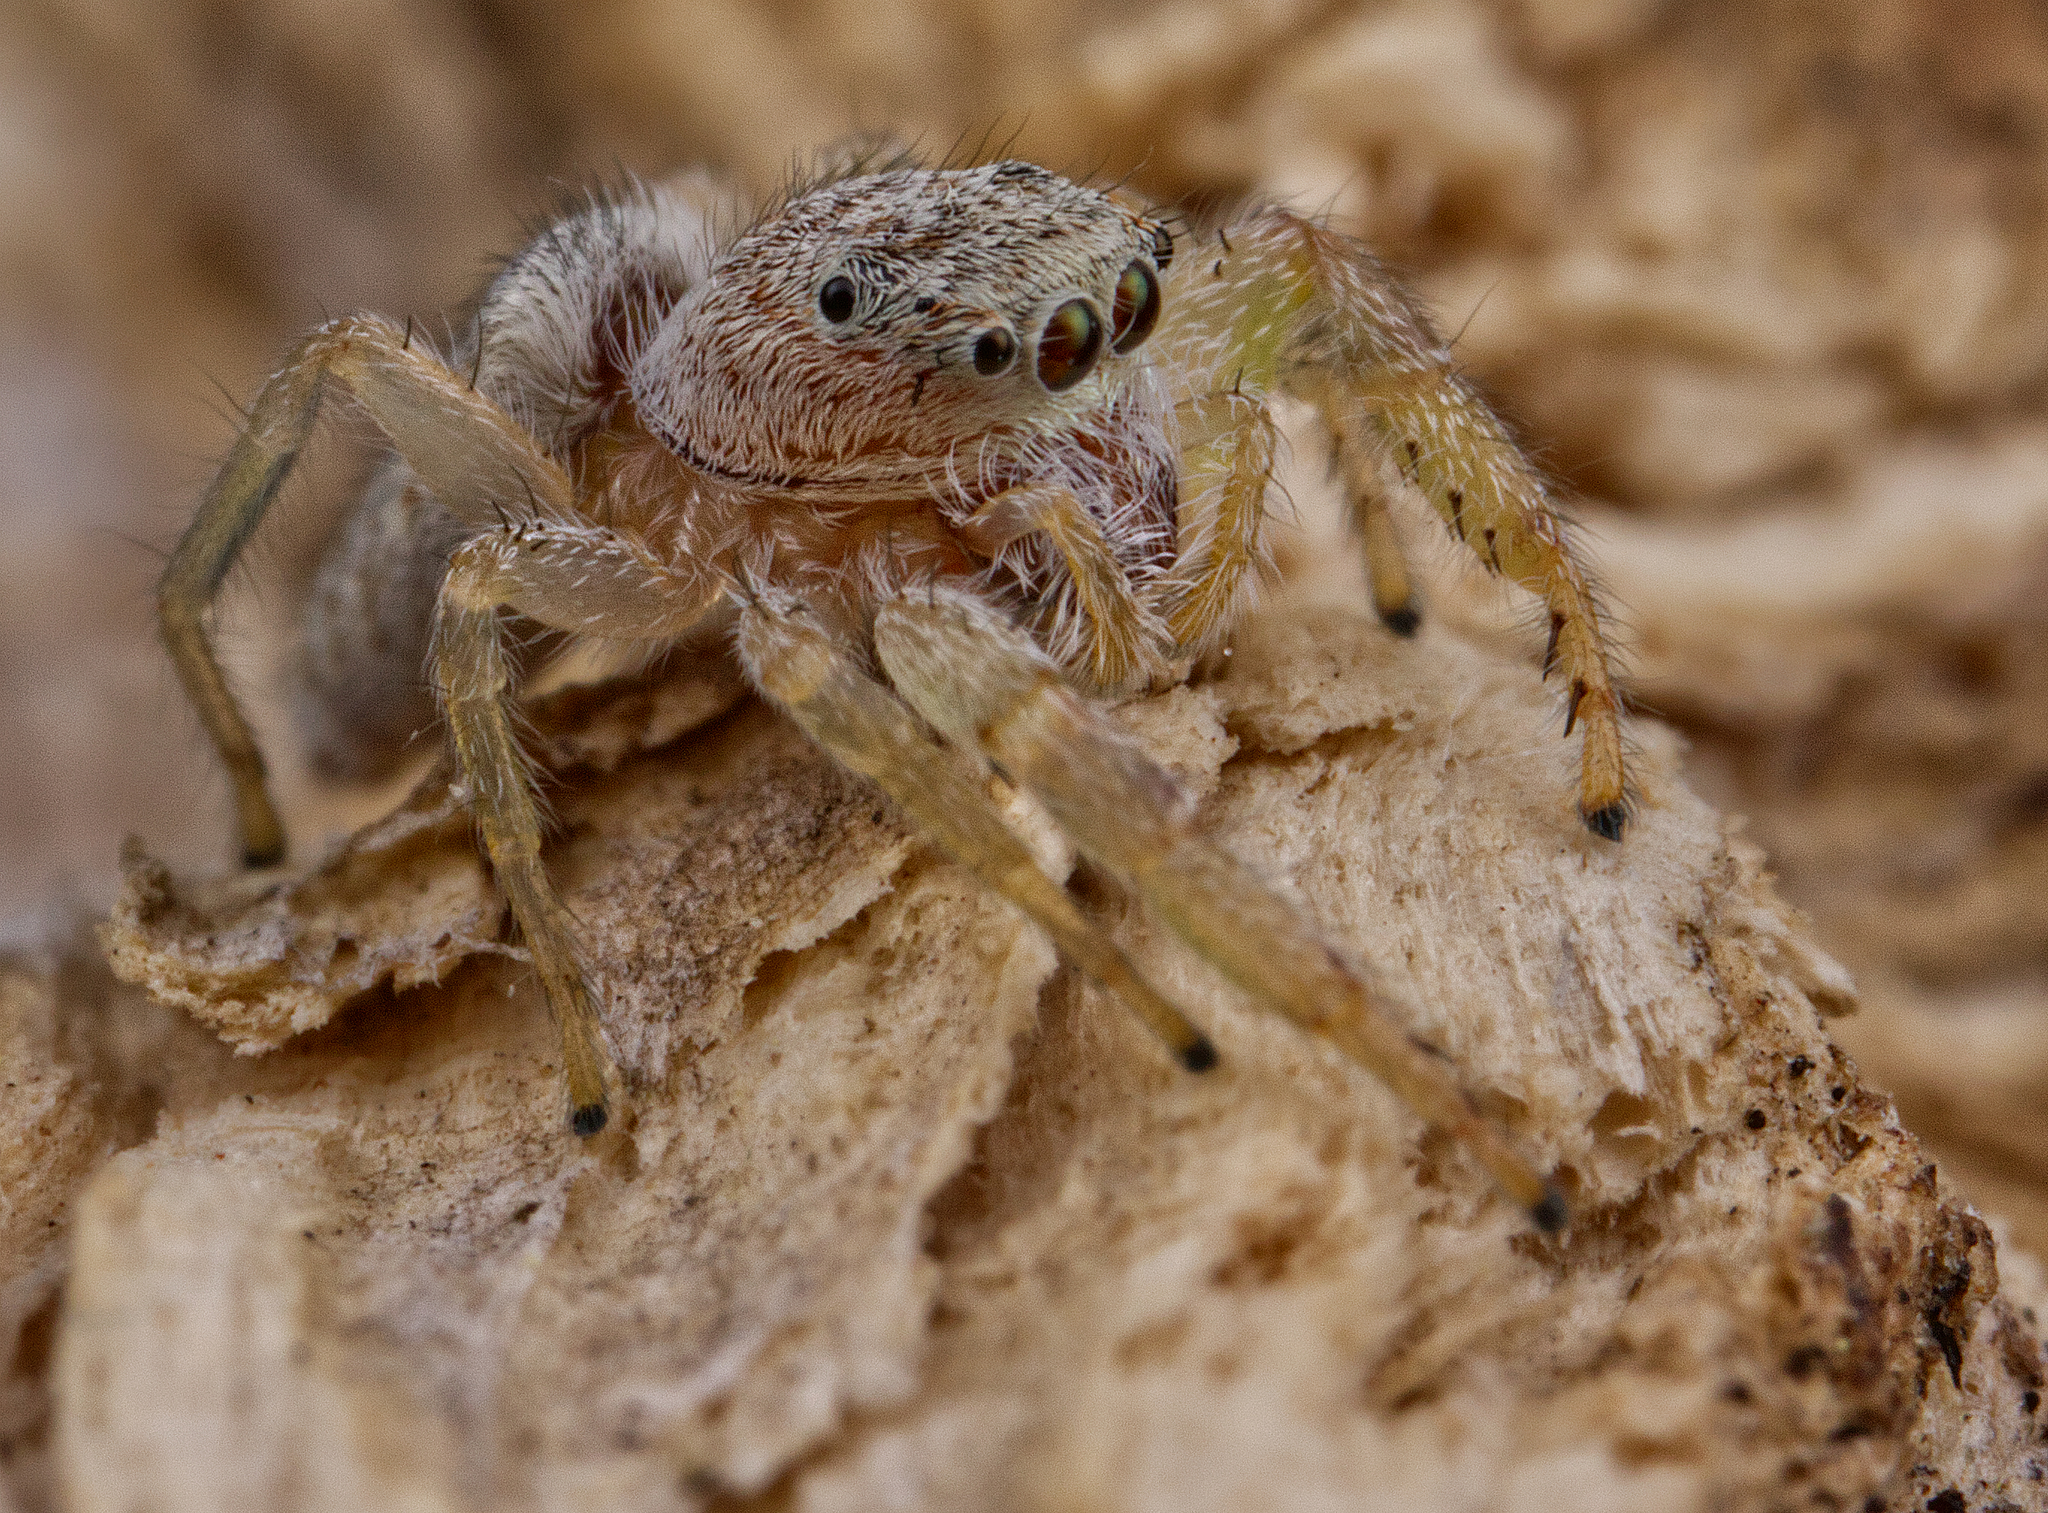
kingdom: Animalia
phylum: Arthropoda
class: Arachnida
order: Araneae
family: Salticidae
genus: Hentzia
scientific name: Hentzia mitrata
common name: White-jawed jumping spider
